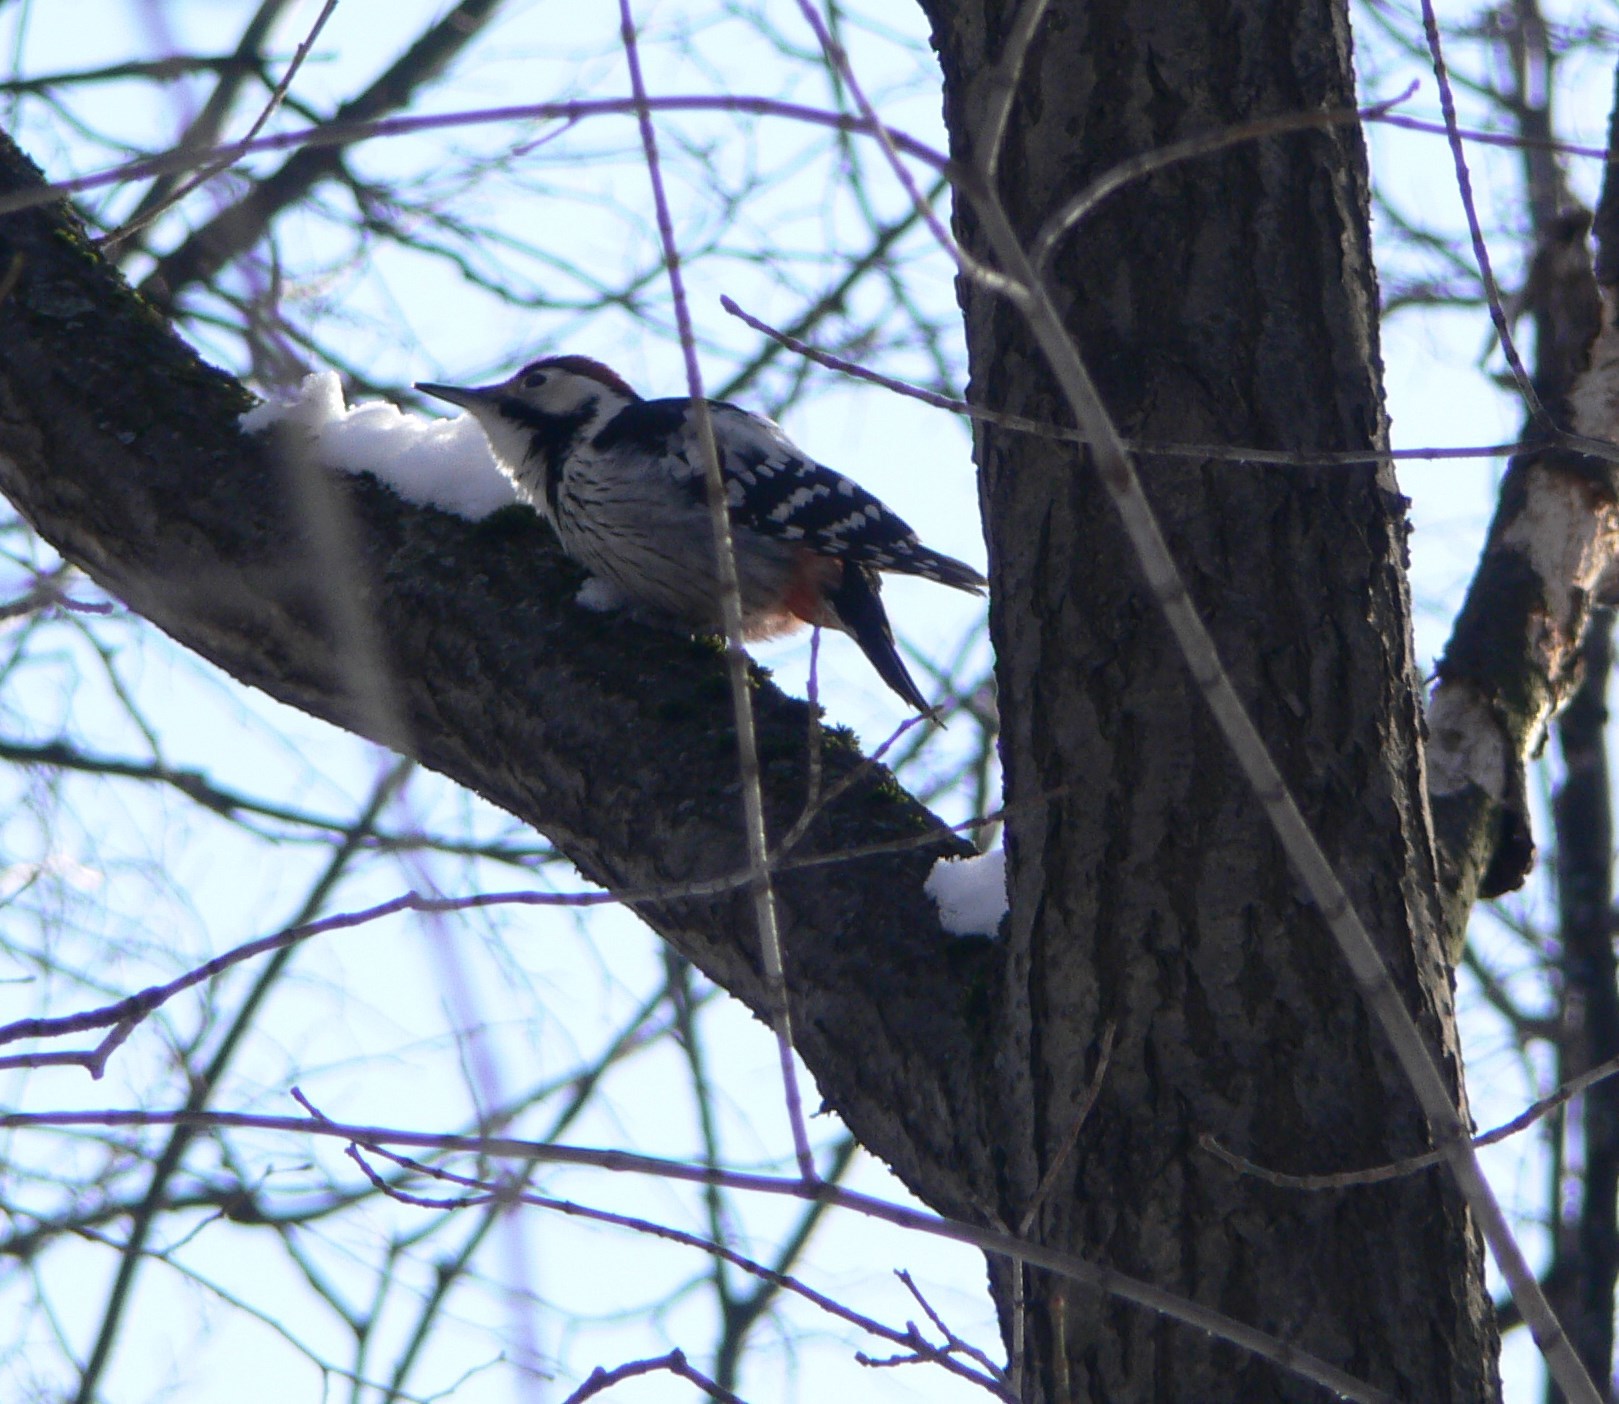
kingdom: Animalia
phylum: Chordata
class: Aves
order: Piciformes
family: Picidae
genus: Dendrocopos
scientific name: Dendrocopos leucotos
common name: White-backed woodpecker
